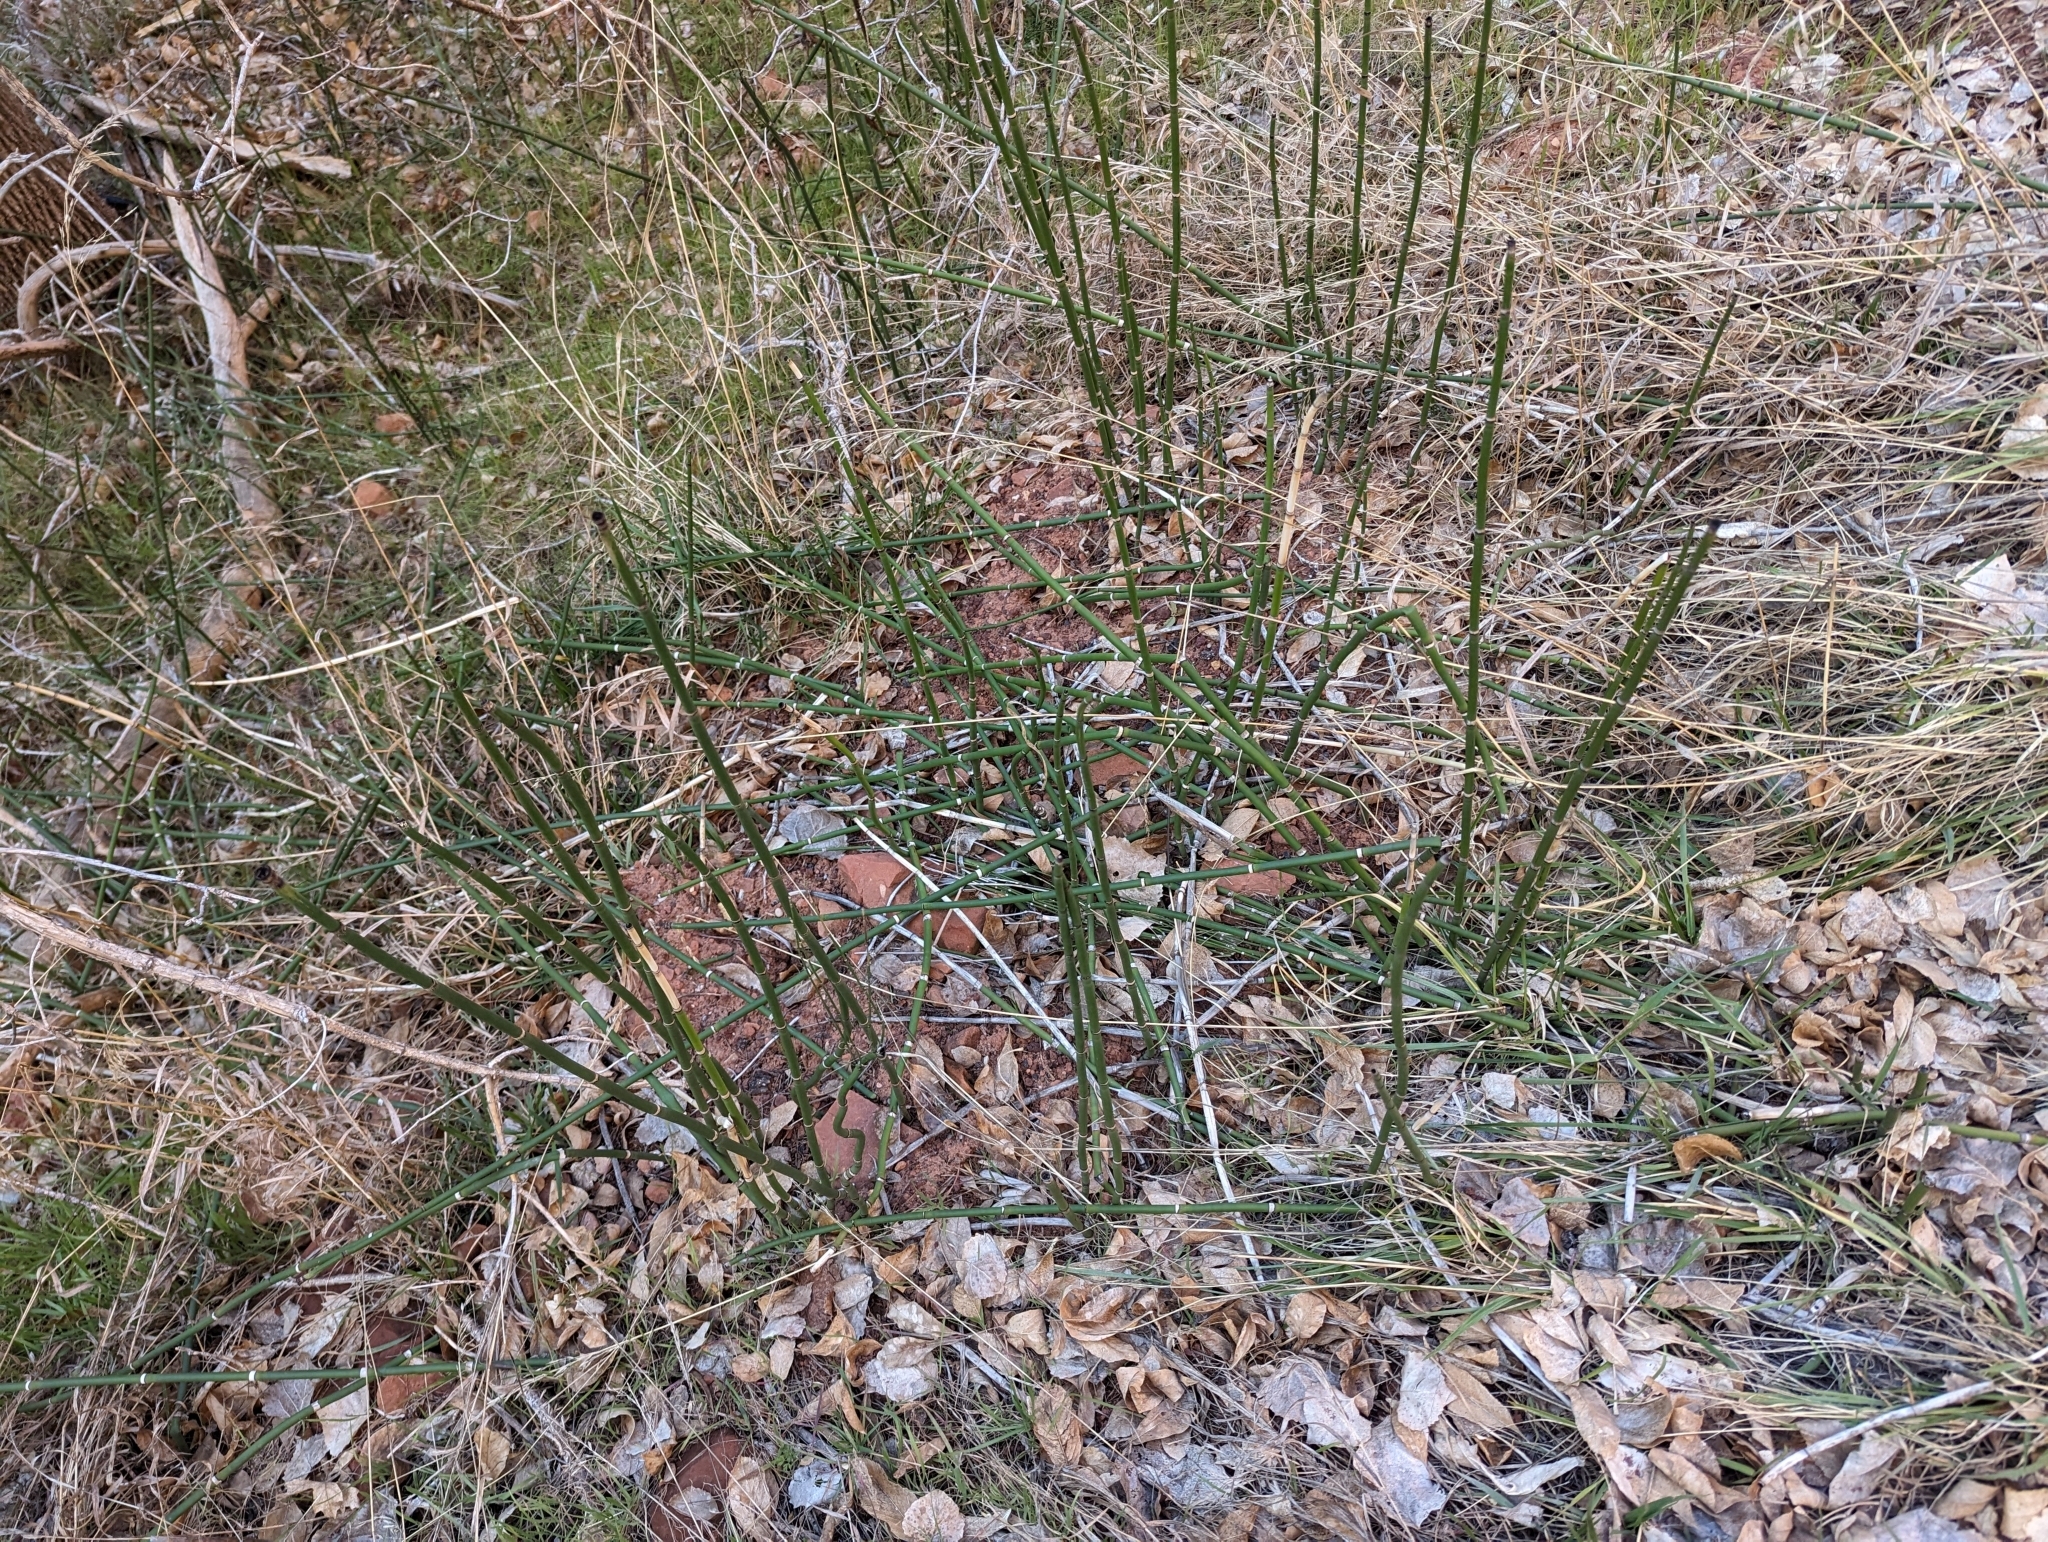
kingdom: Plantae
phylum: Tracheophyta
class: Polypodiopsida
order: Equisetales
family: Equisetaceae
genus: Equisetum
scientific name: Equisetum hyemale
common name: Rough horsetail
